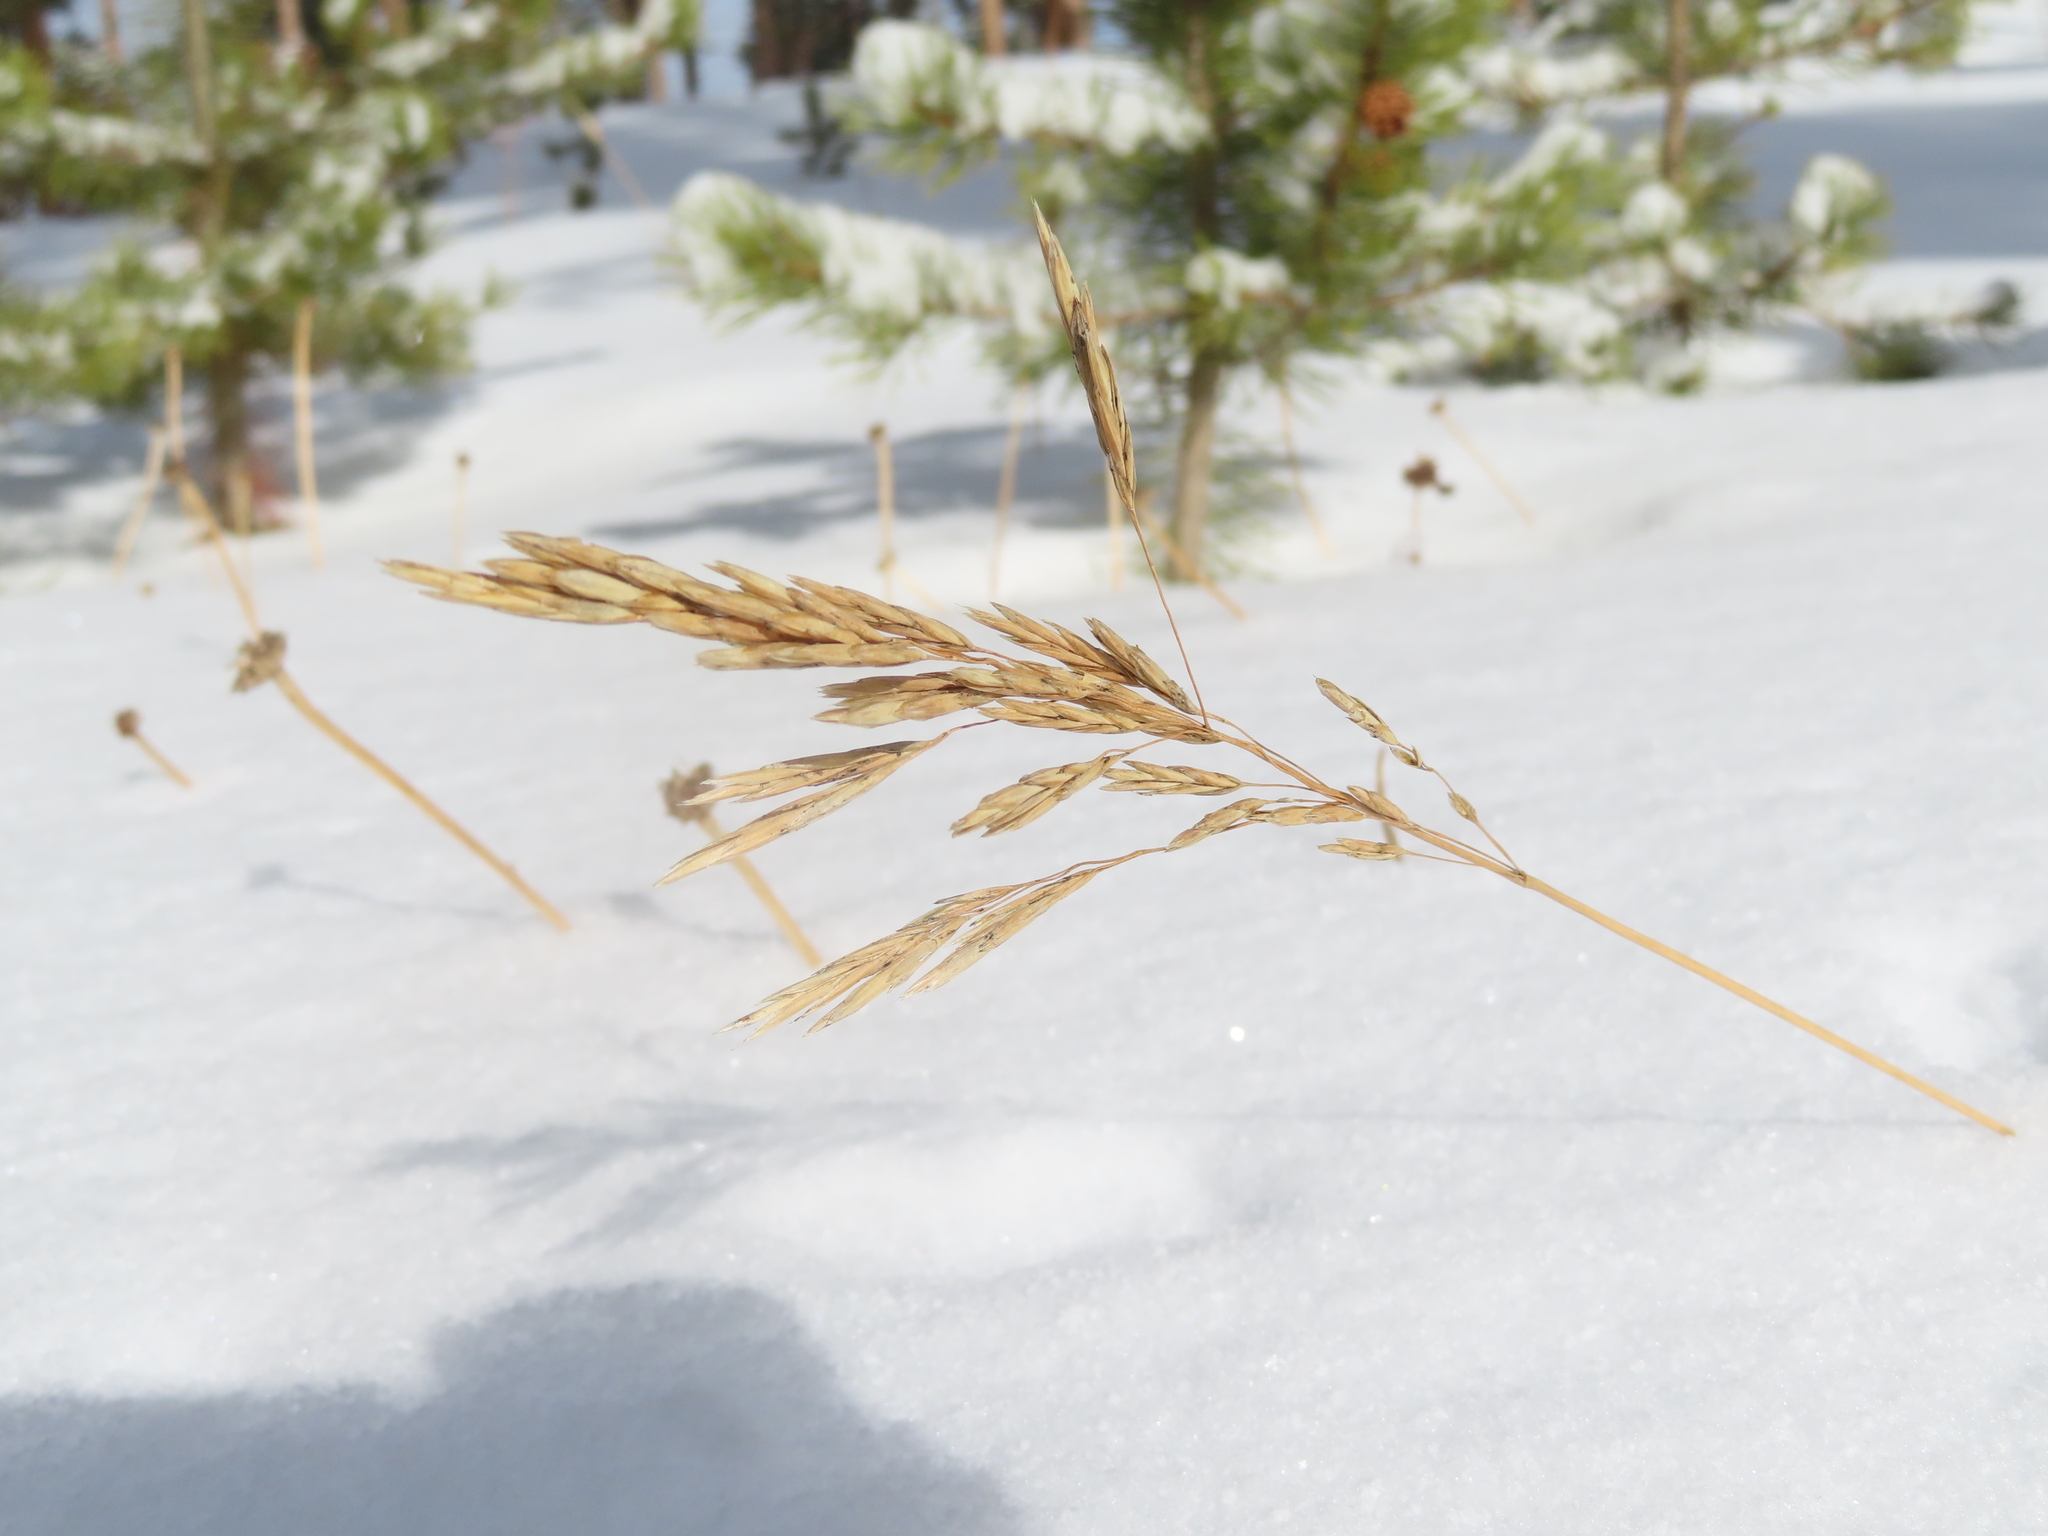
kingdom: Plantae
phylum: Tracheophyta
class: Liliopsida
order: Poales
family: Poaceae
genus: Bromus
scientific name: Bromus inermis
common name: Smooth brome
